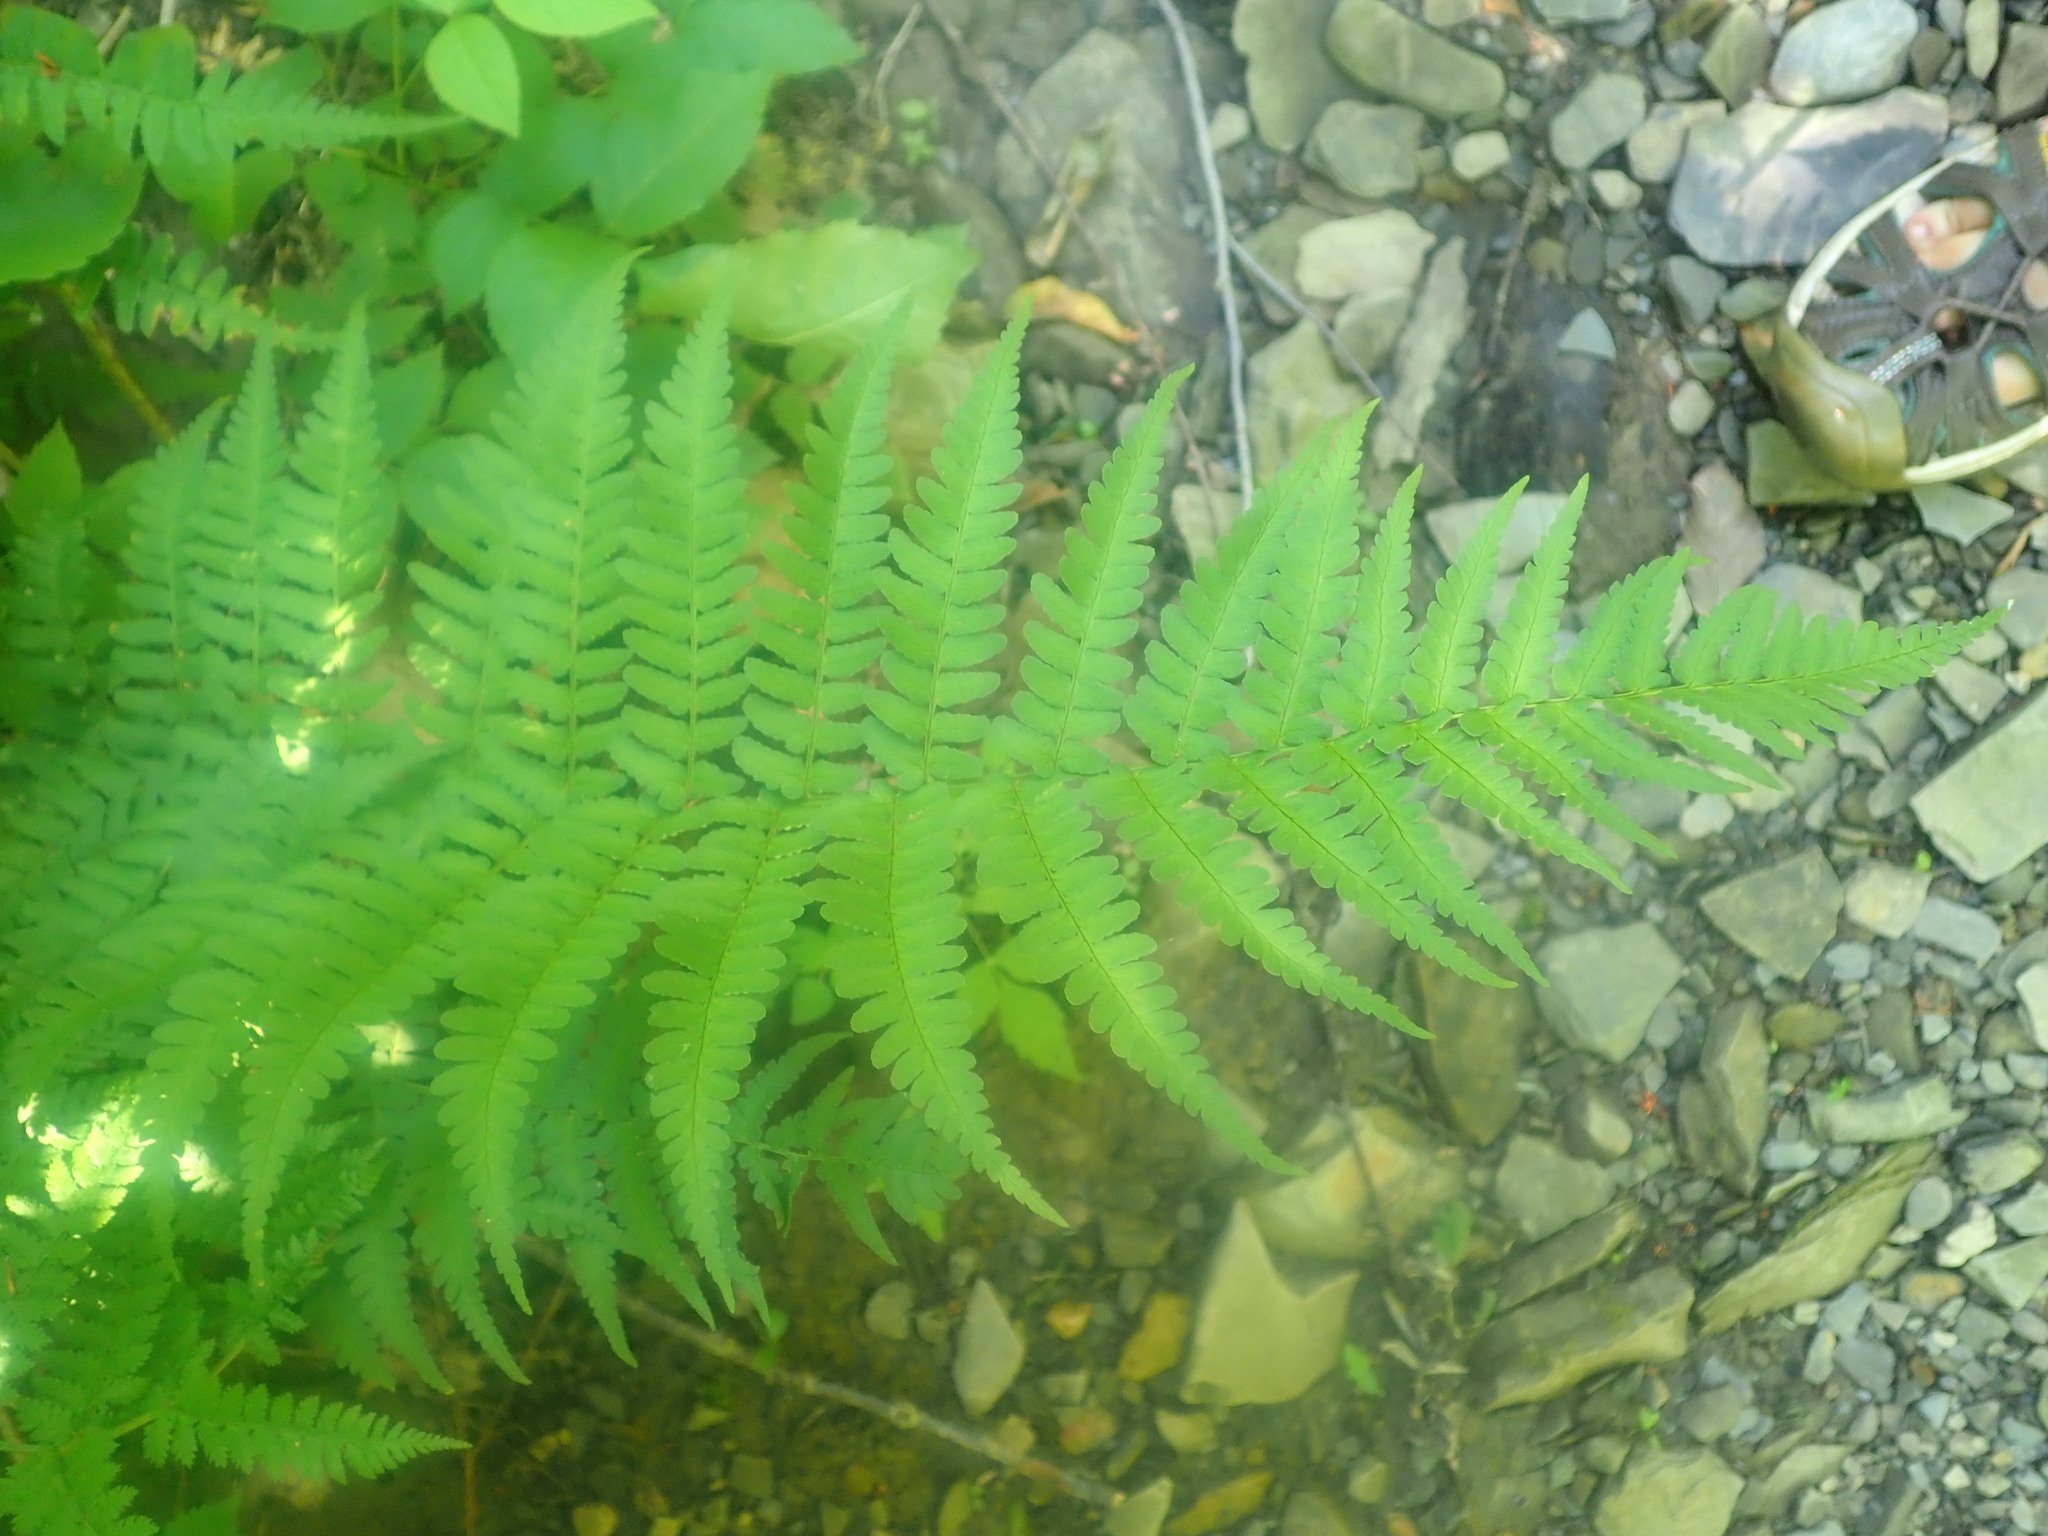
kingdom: Plantae
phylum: Tracheophyta
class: Polypodiopsida
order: Polypodiales
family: Dryopteridaceae
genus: Dryopteris
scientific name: Dryopteris marginalis
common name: Marginal wood fern
